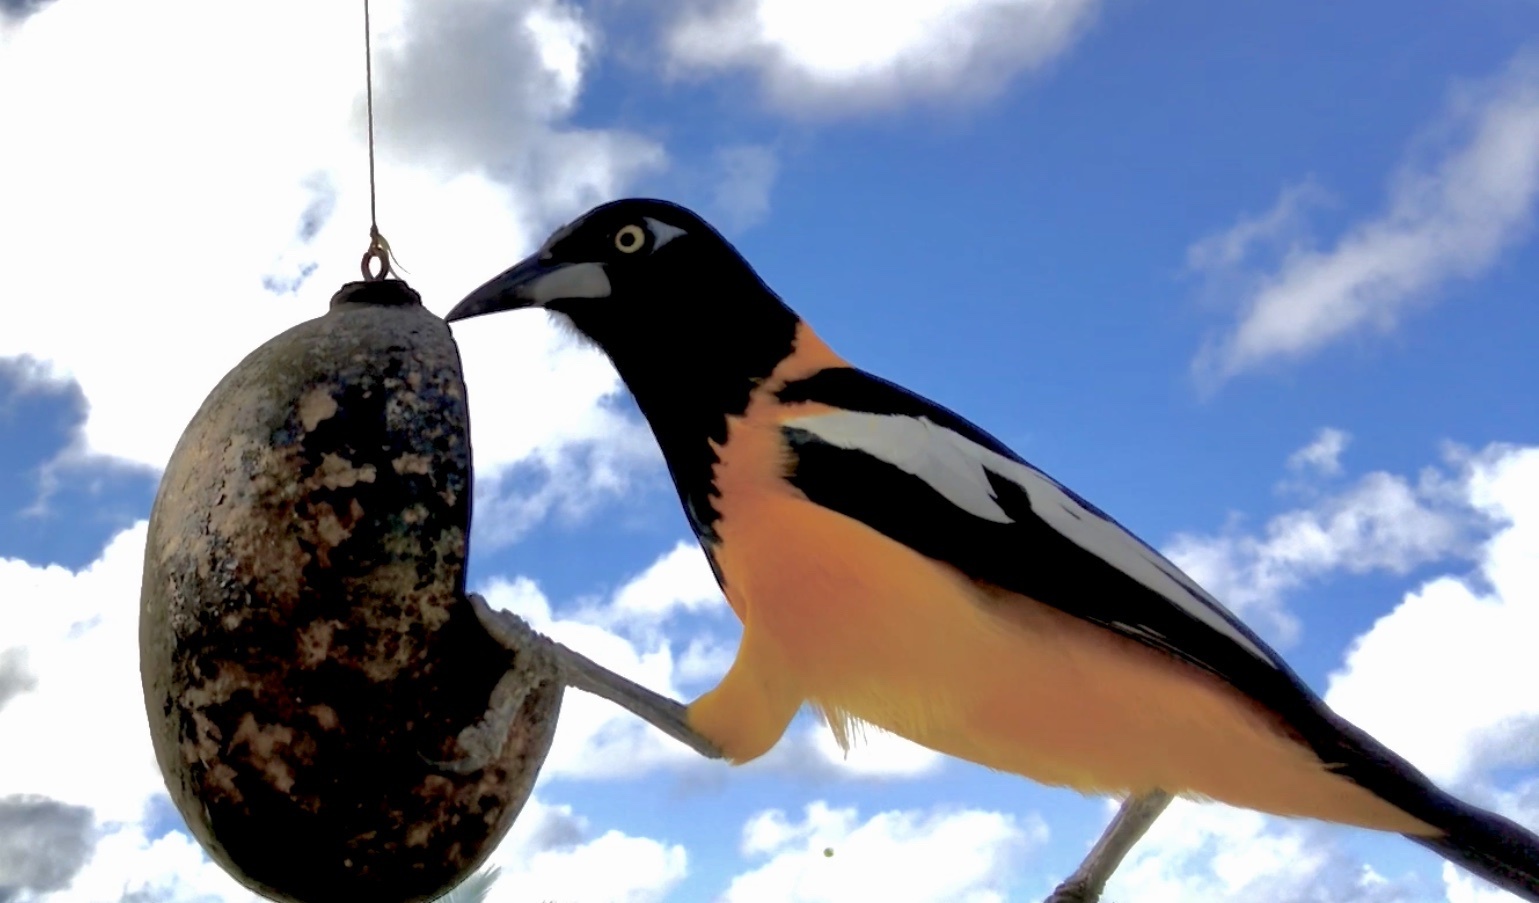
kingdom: Animalia
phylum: Chordata
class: Aves
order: Passeriformes
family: Icteridae
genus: Icterus
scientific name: Icterus icterus
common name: Venezuelan troupial
